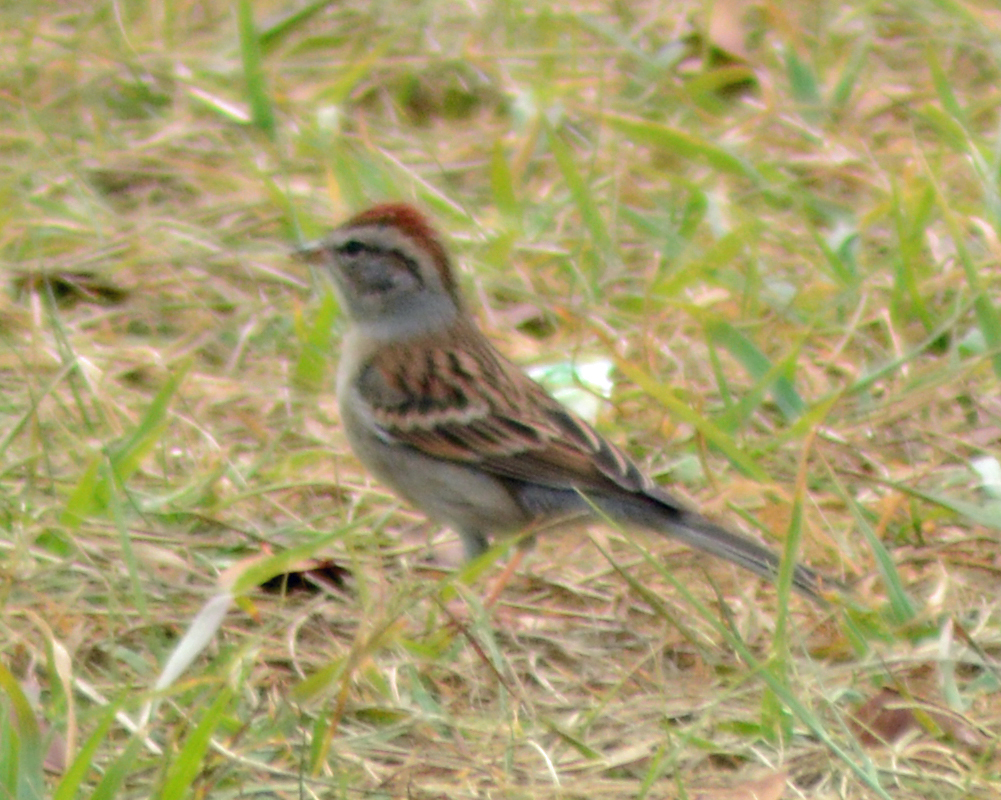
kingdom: Animalia
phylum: Chordata
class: Aves
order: Passeriformes
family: Passerellidae
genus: Spizella
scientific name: Spizella passerina
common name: Chipping sparrow
